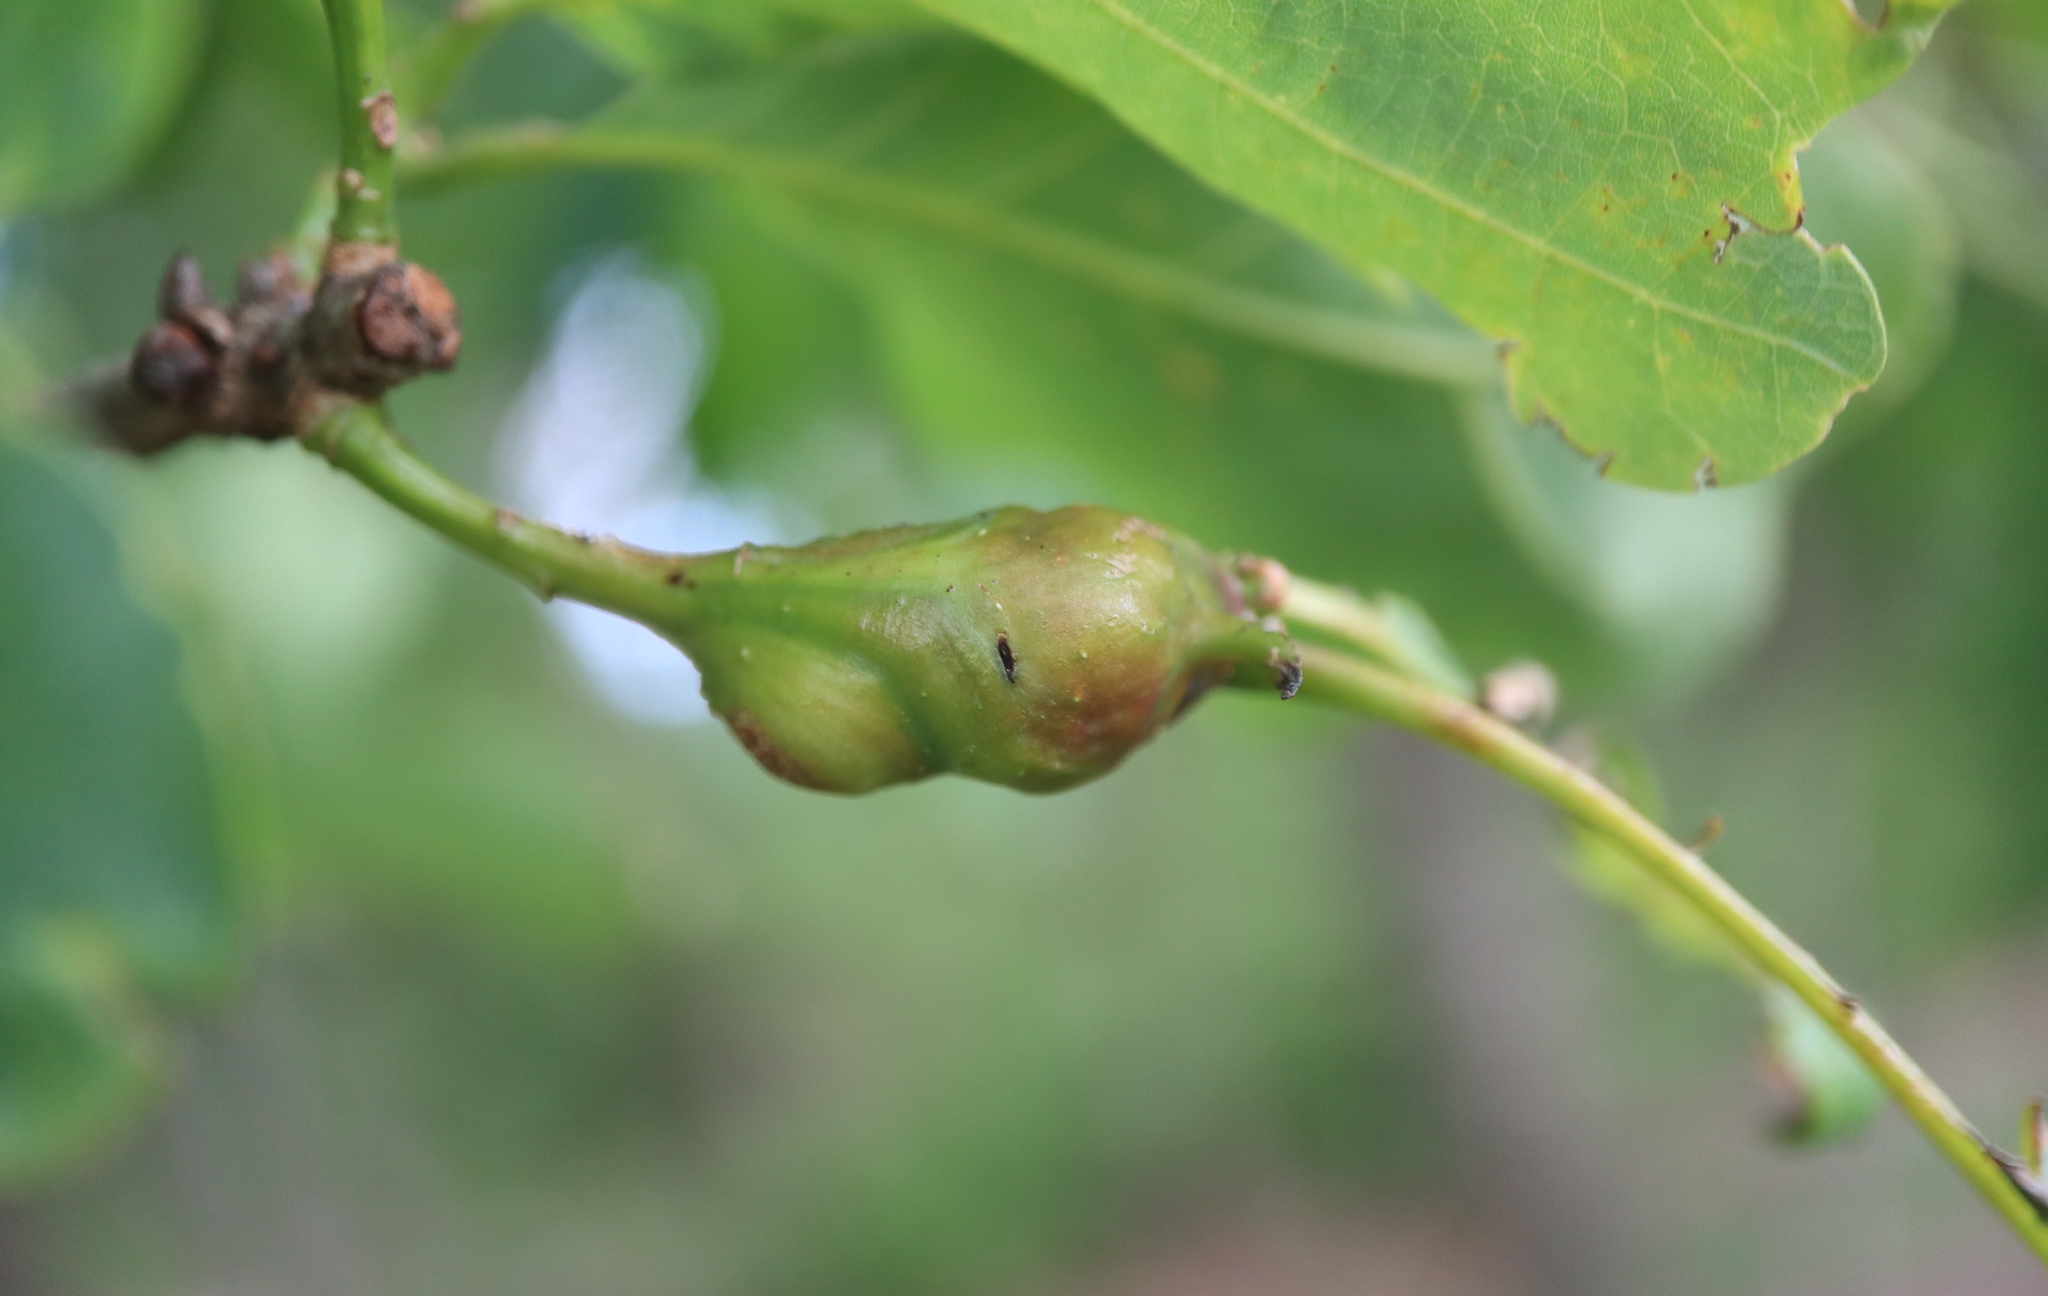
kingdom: Animalia
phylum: Arthropoda
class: Insecta
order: Hymenoptera
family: Cynipidae
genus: Neuroterus
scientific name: Neuroterus quercusbaccarum
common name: Common spangle gall
